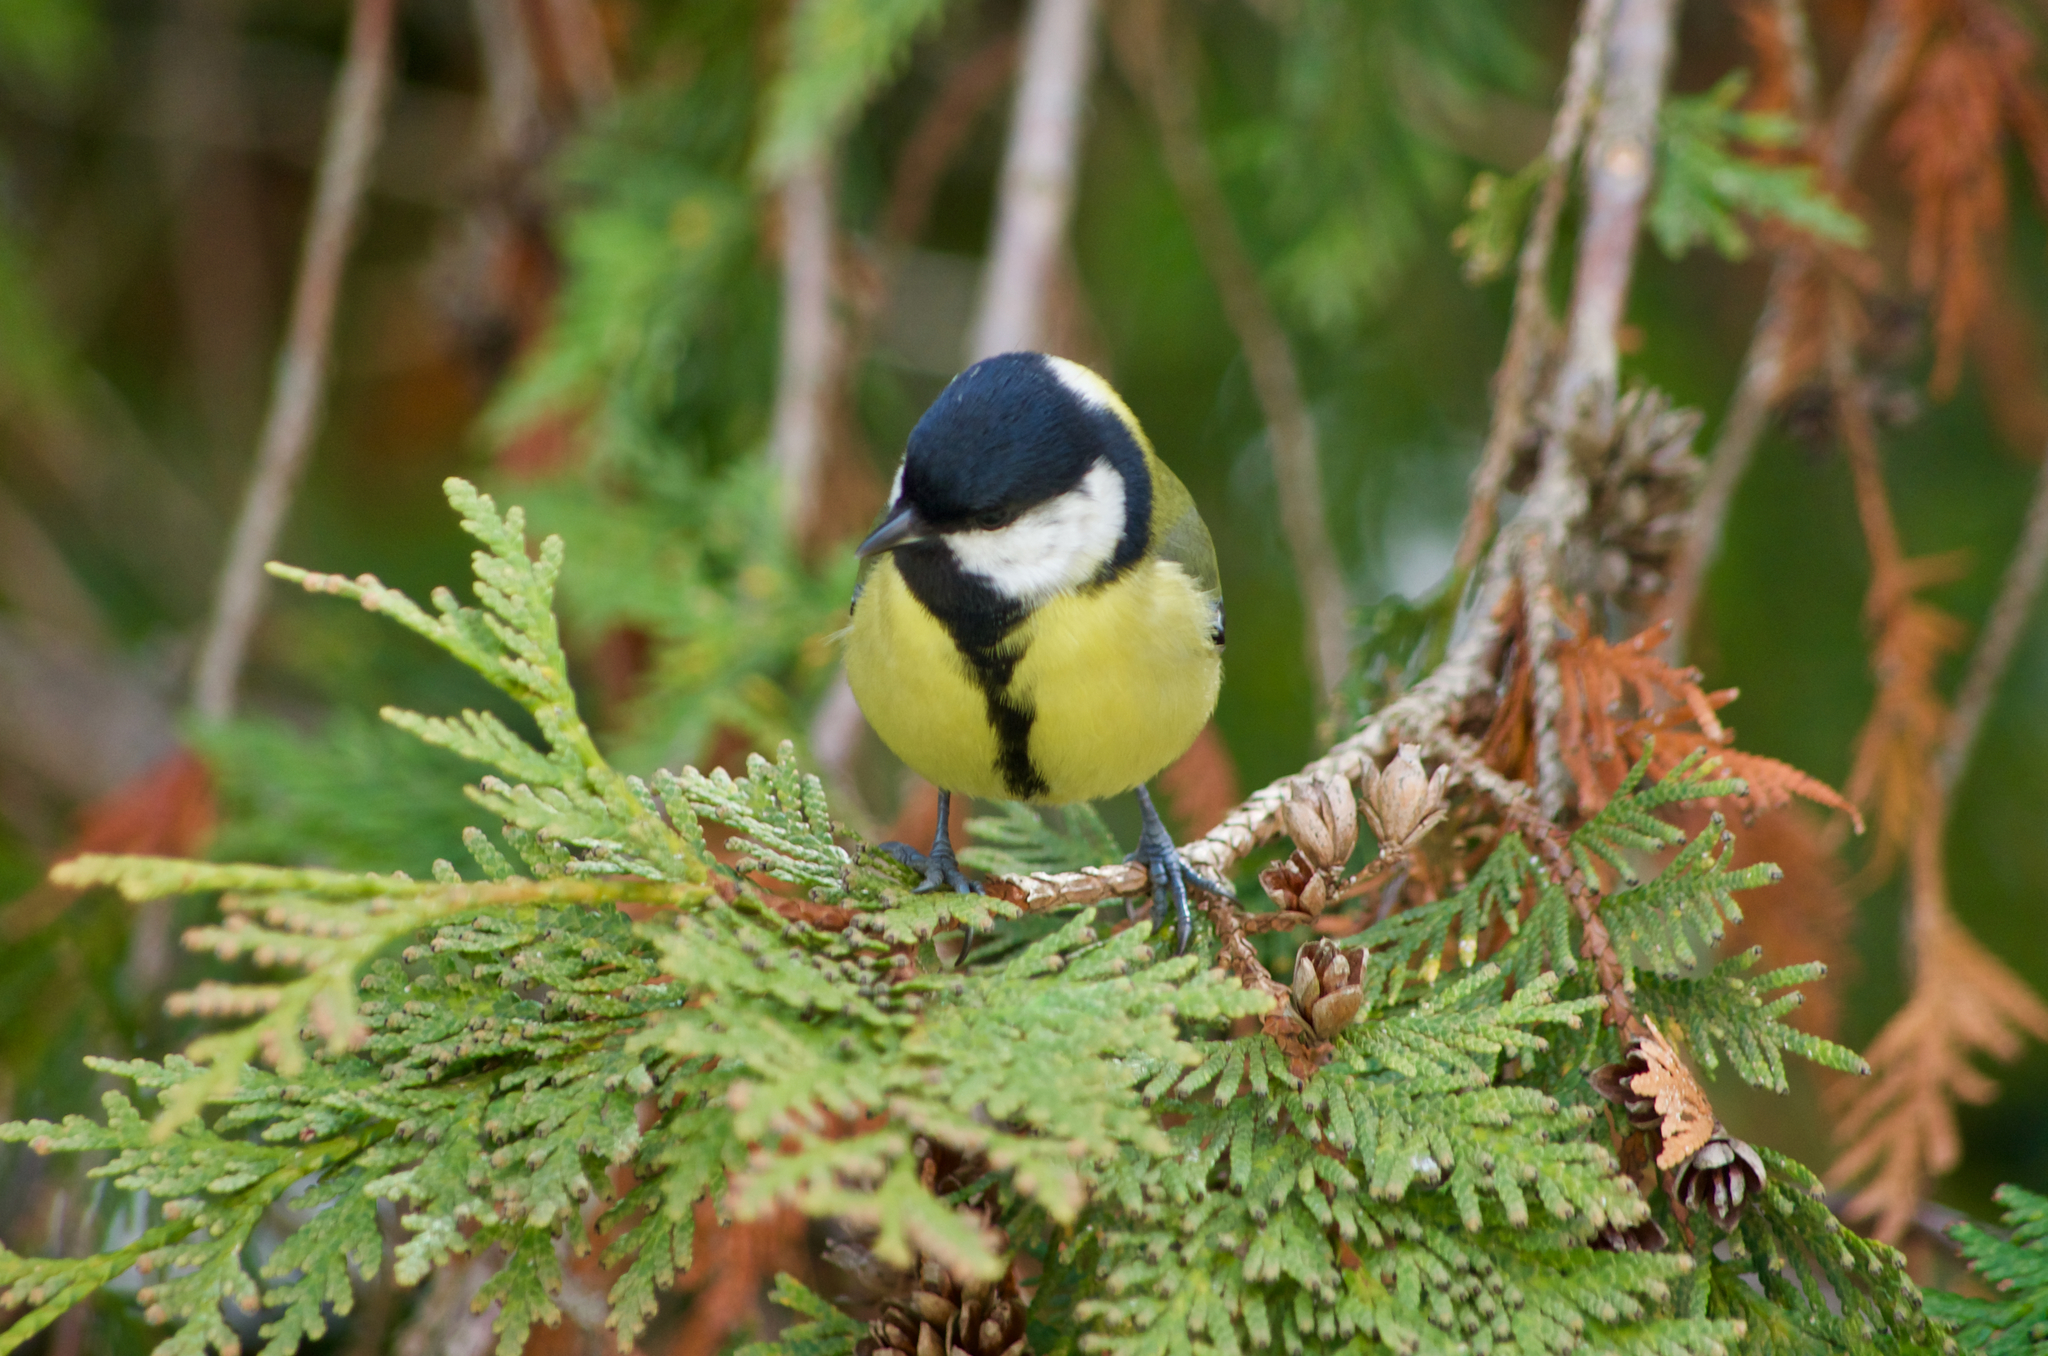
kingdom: Animalia
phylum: Chordata
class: Aves
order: Passeriformes
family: Paridae
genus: Parus
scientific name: Parus major
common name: Great tit
